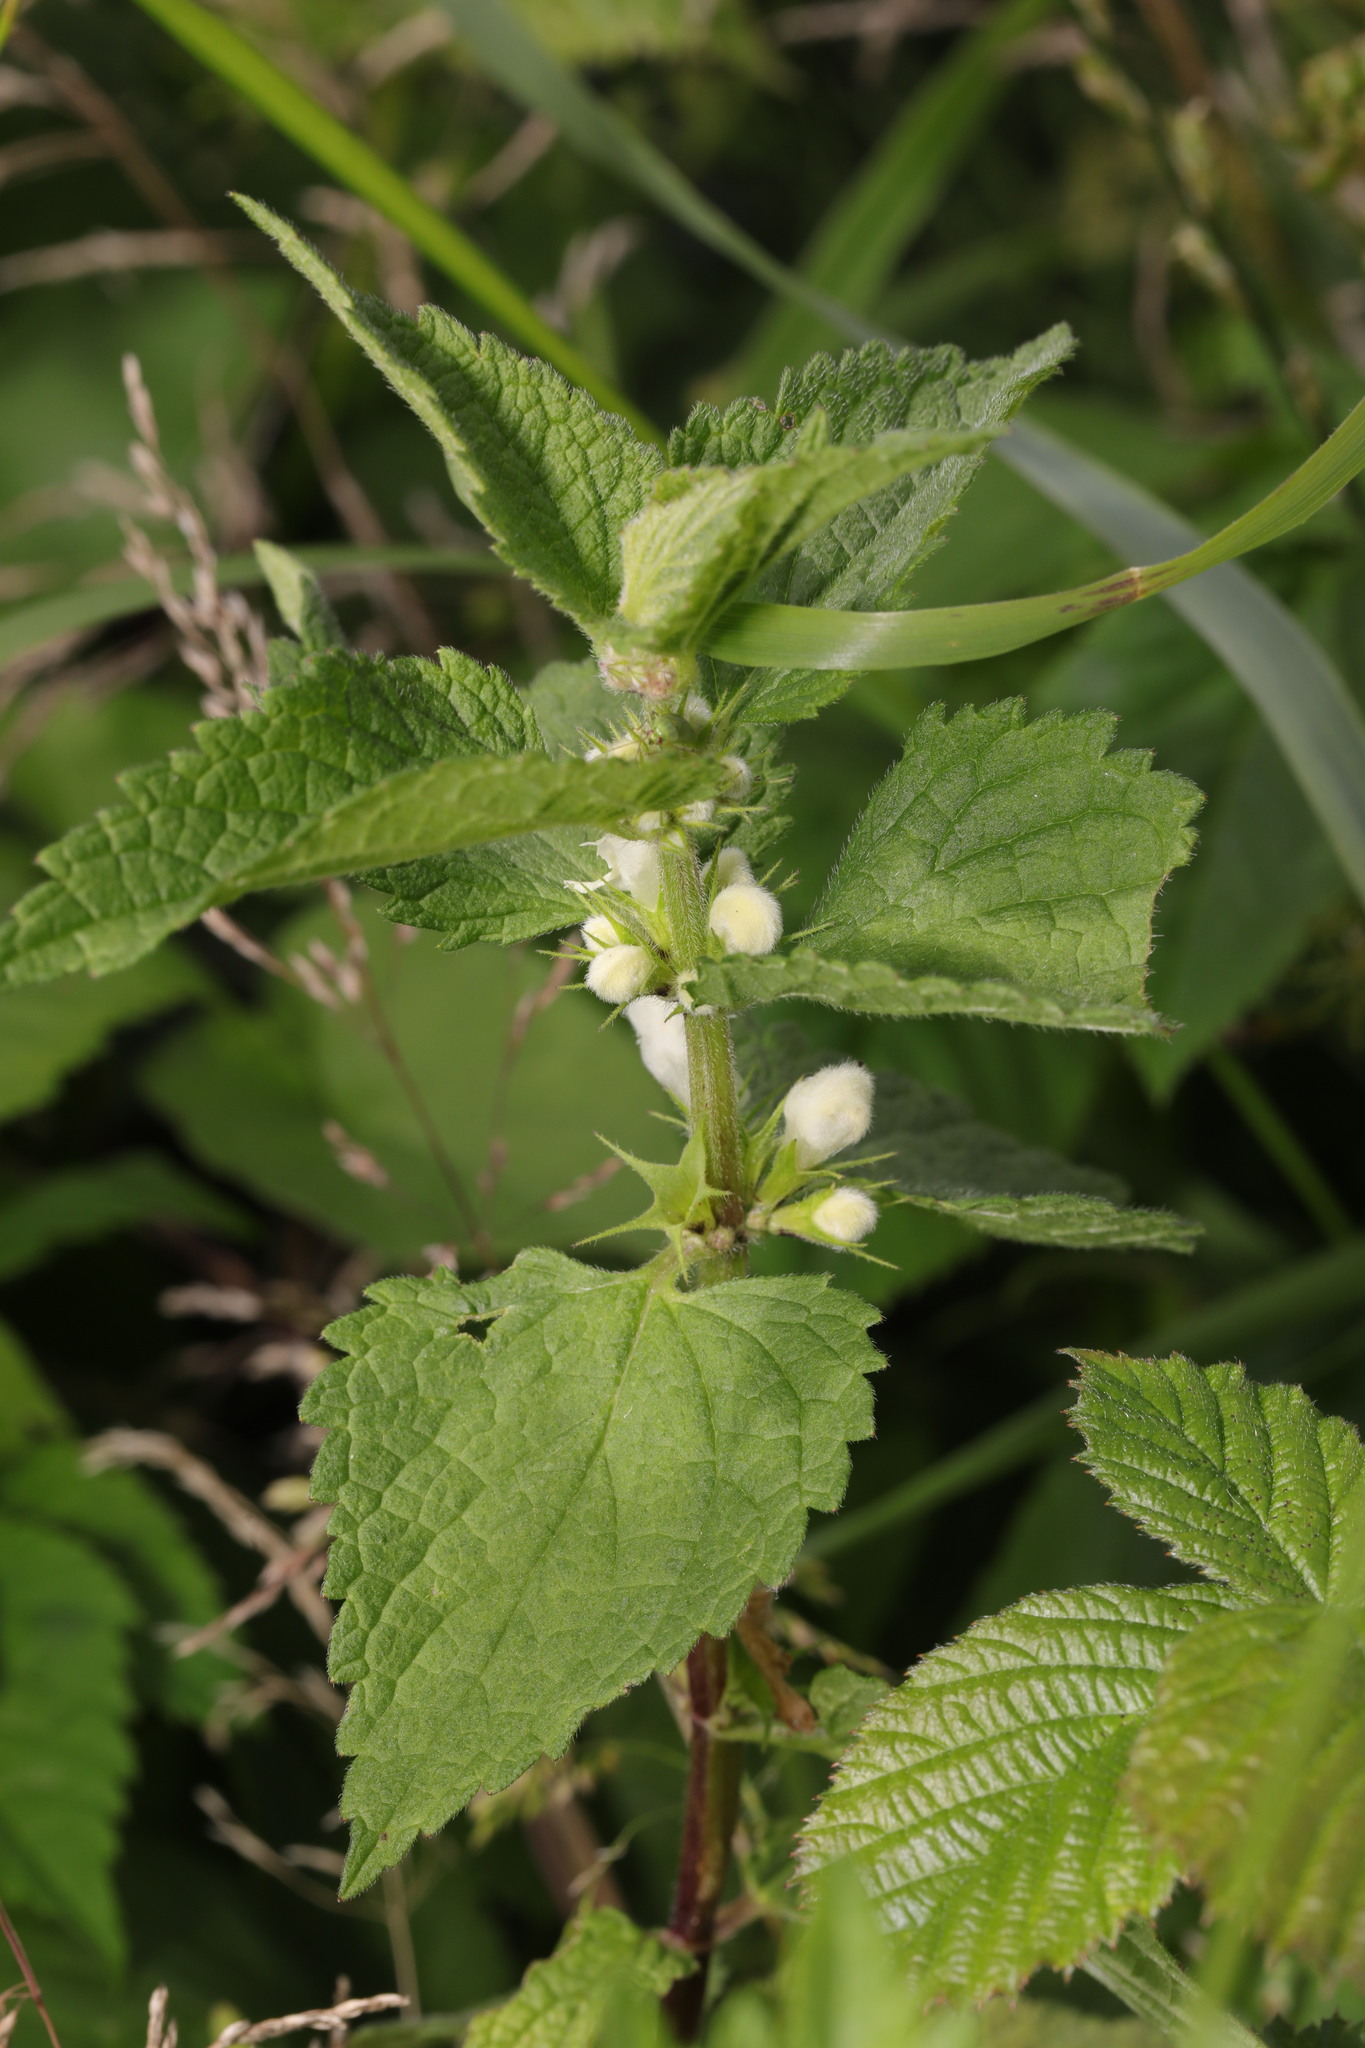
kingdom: Plantae
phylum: Tracheophyta
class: Magnoliopsida
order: Lamiales
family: Lamiaceae
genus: Lamium
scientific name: Lamium album
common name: White dead-nettle
